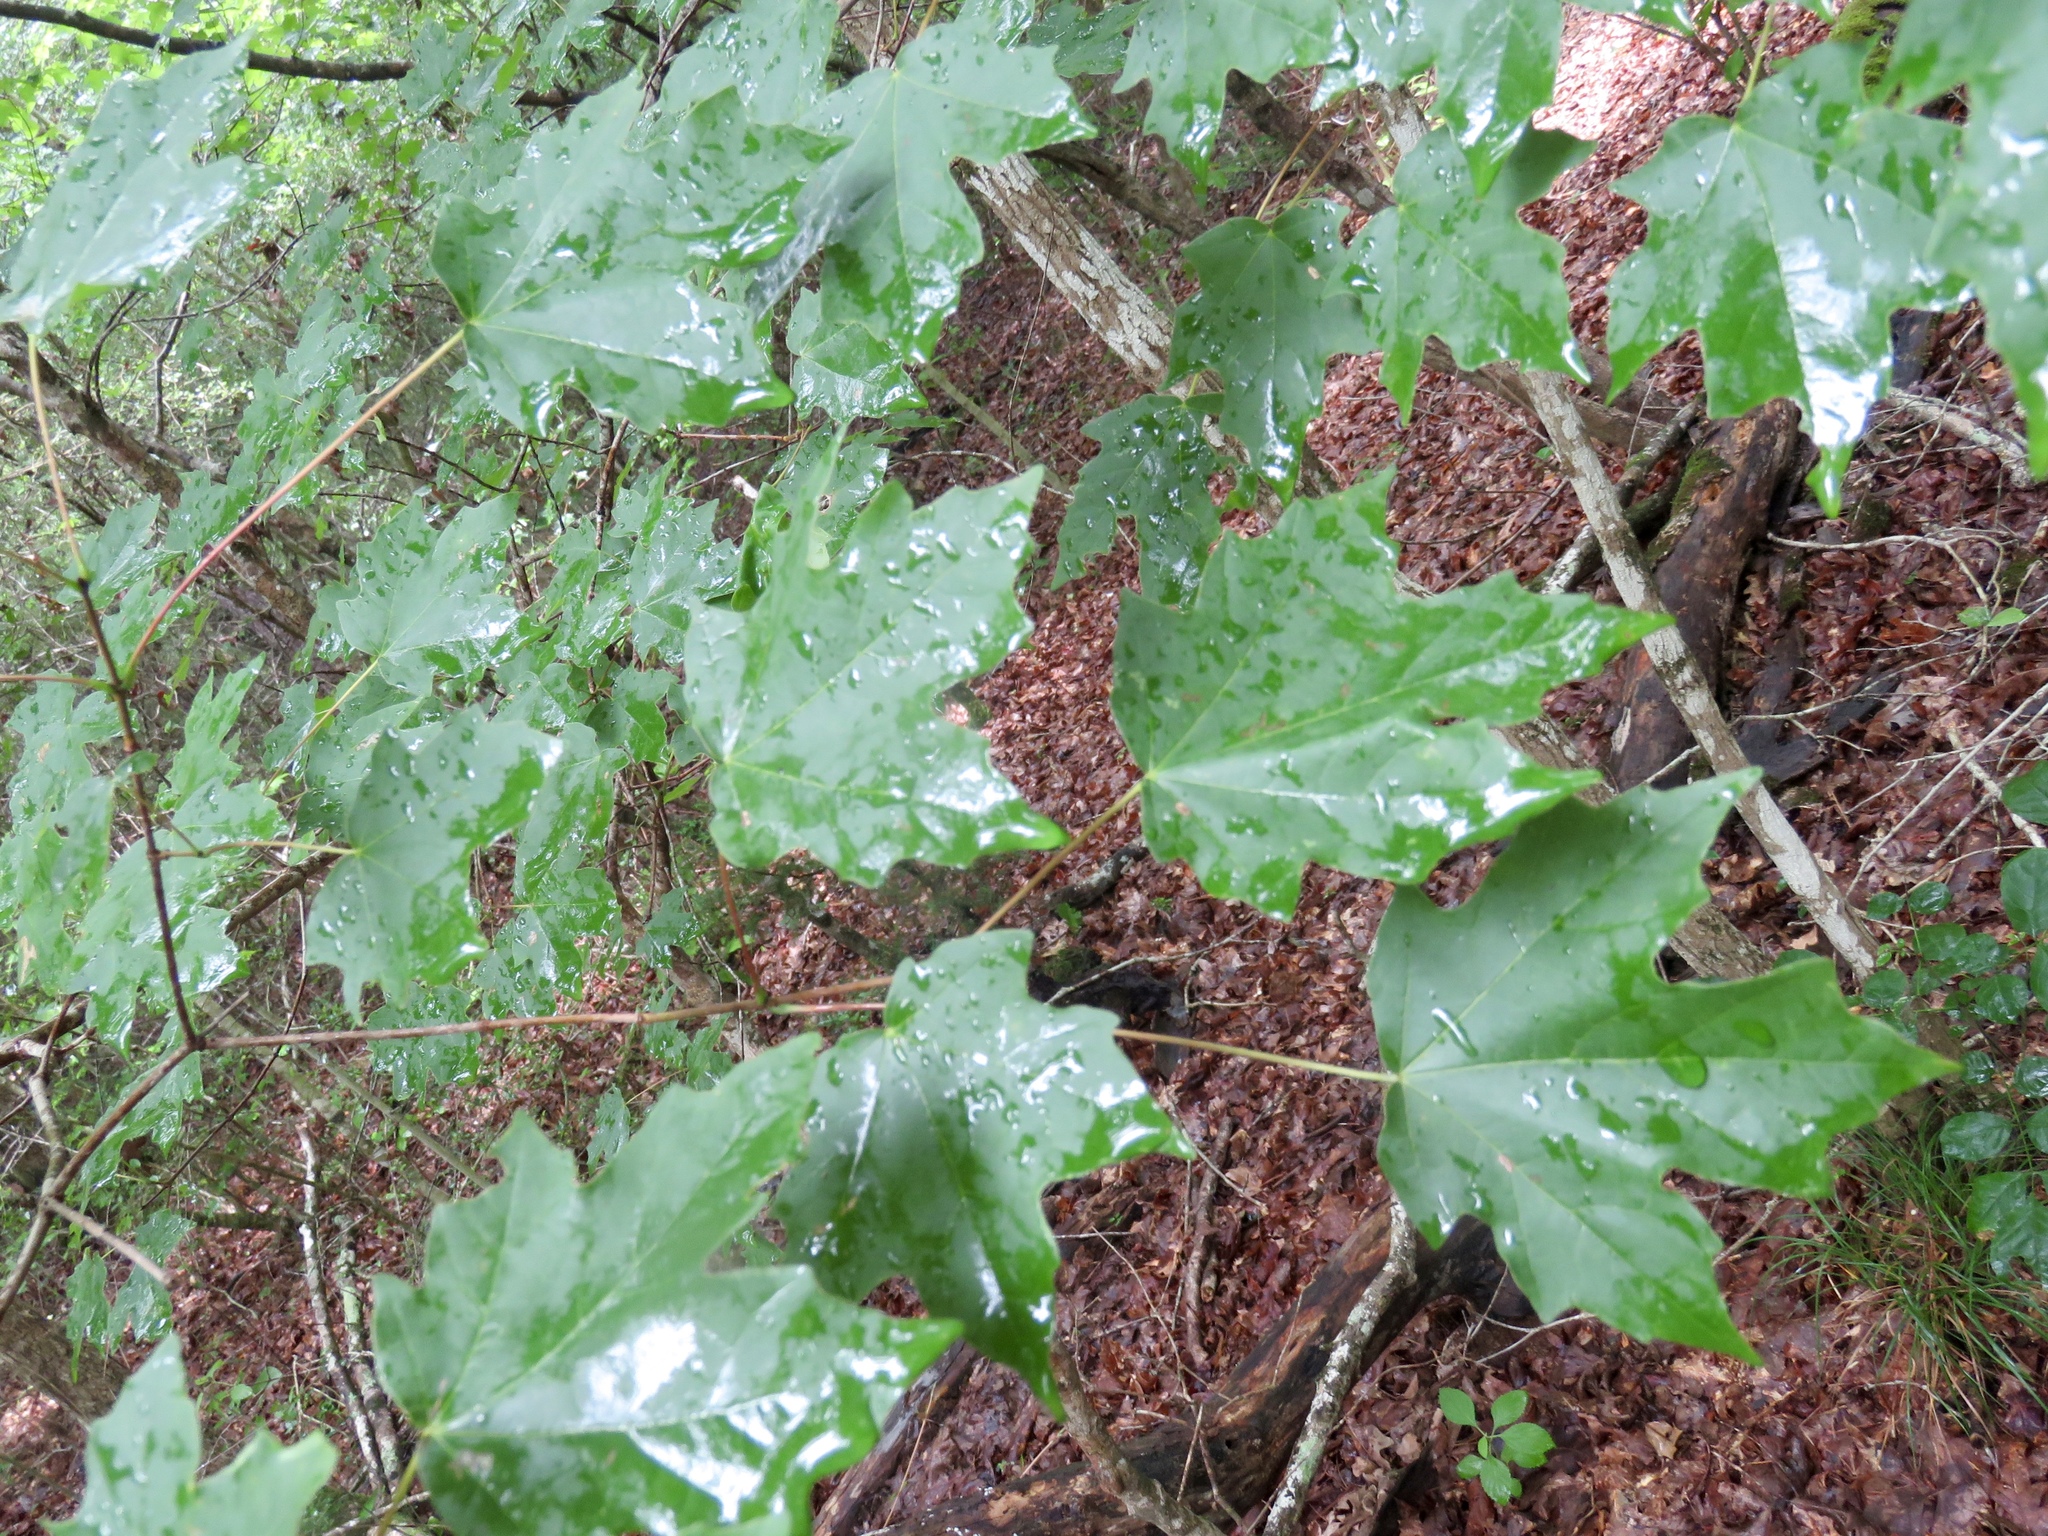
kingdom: Plantae
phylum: Tracheophyta
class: Magnoliopsida
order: Sapindales
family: Sapindaceae
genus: Acer
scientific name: Acer floridanum
